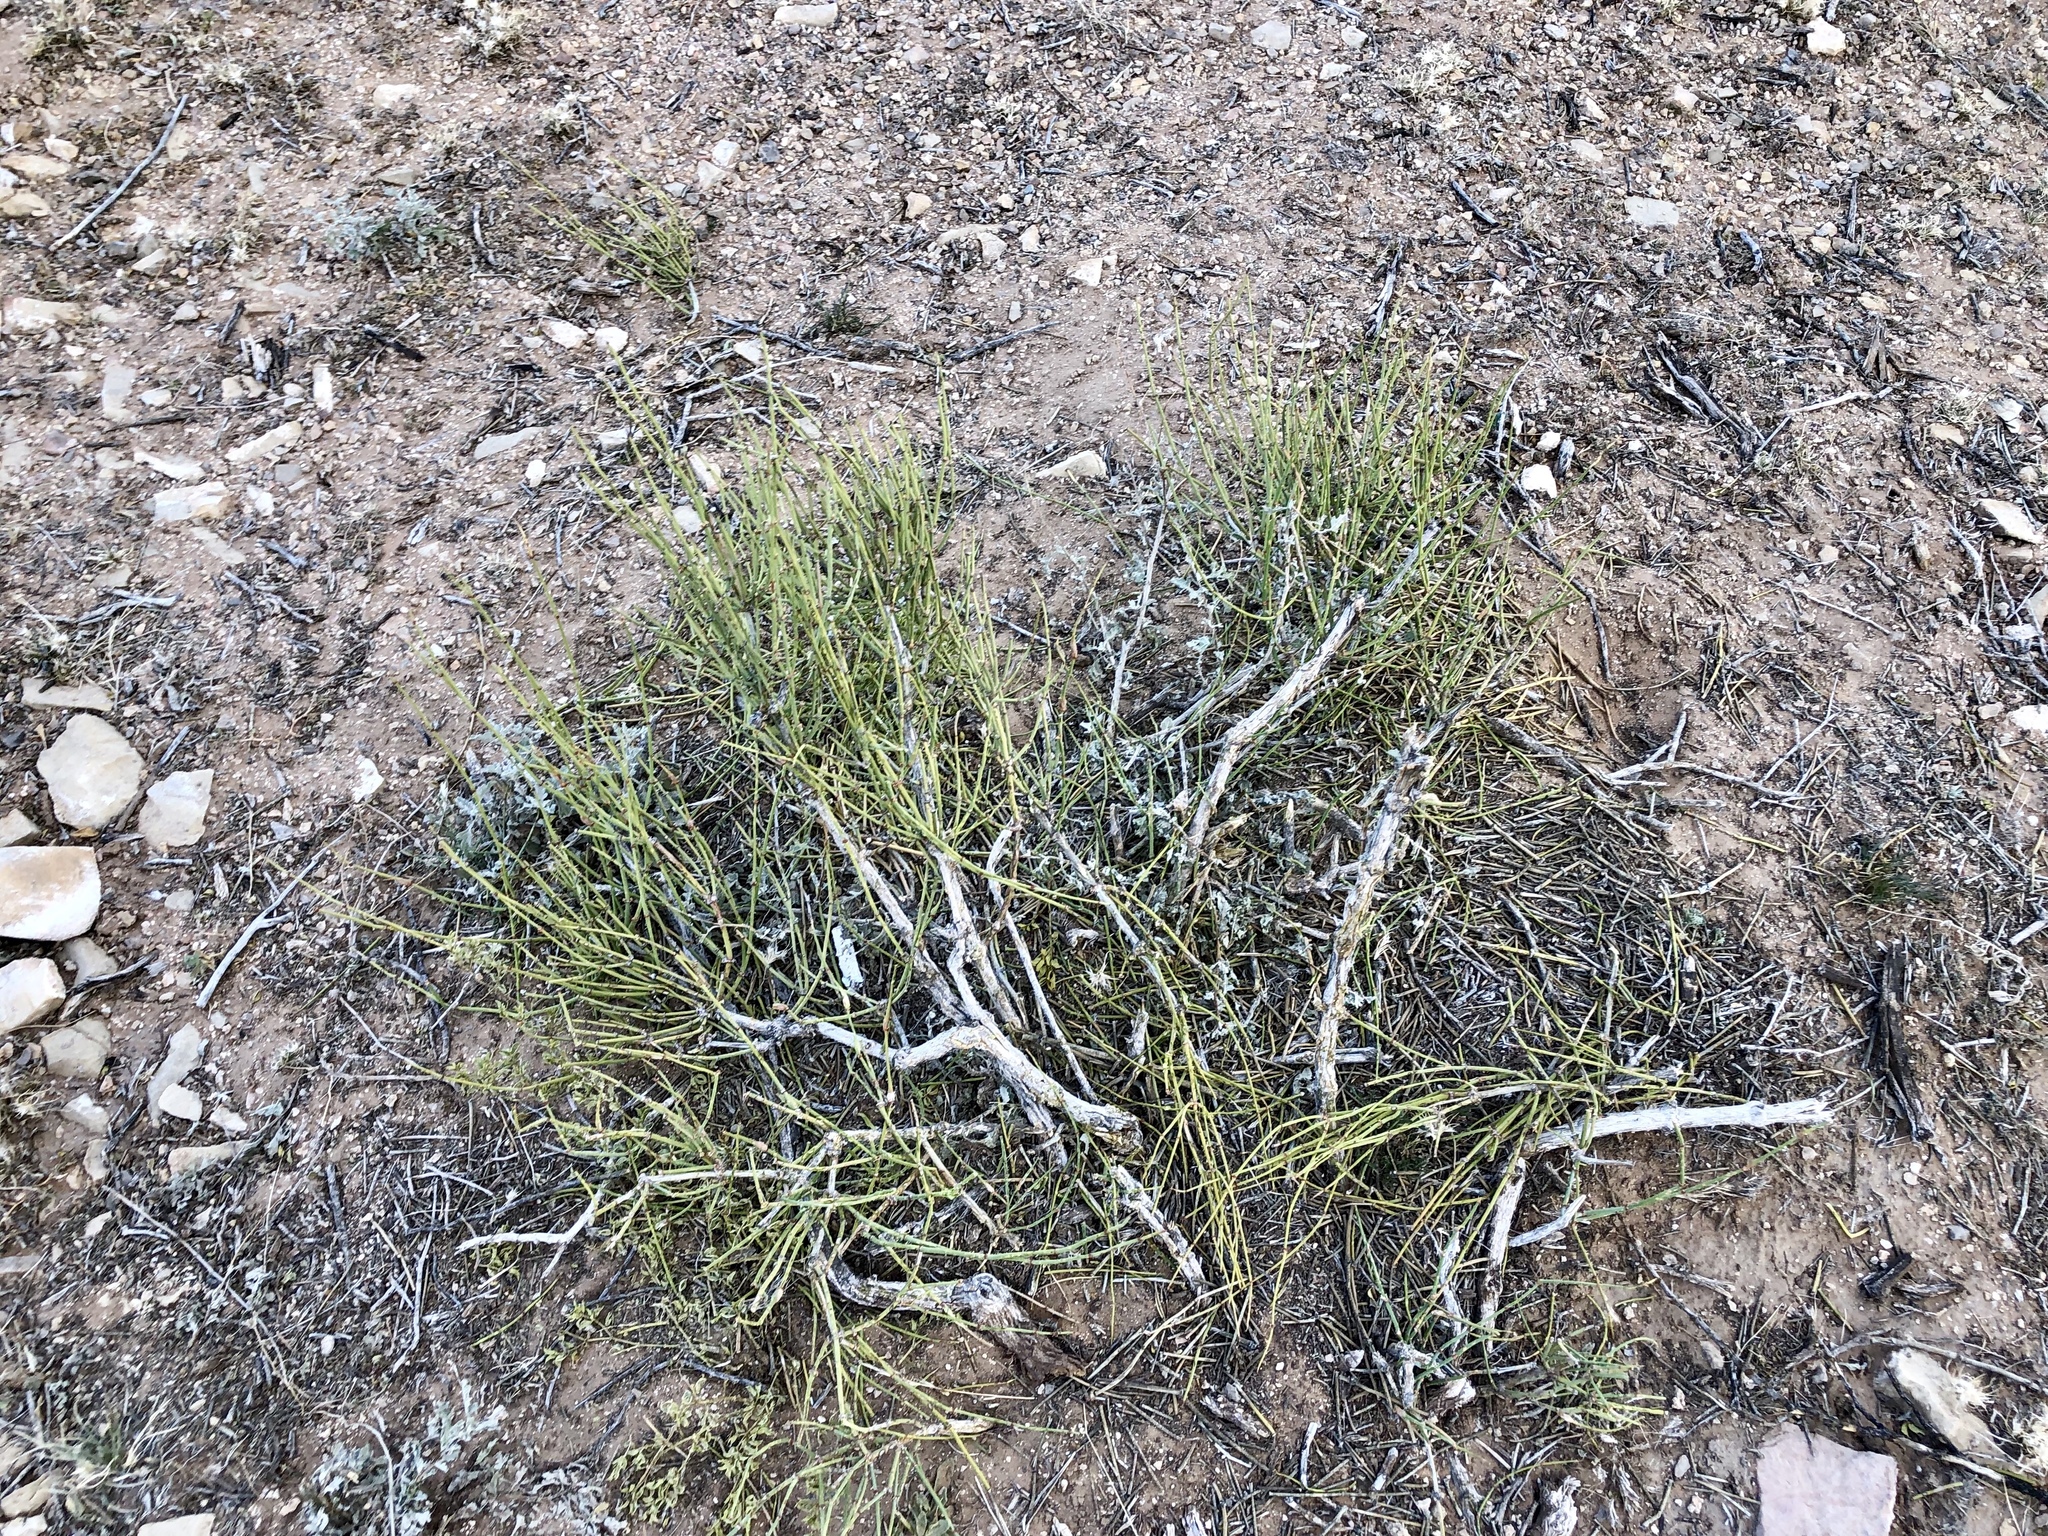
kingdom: Plantae
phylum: Tracheophyta
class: Gnetopsida
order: Ephedrales
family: Ephedraceae
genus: Ephedra
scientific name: Ephedra aspera
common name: Boundary ephedra
